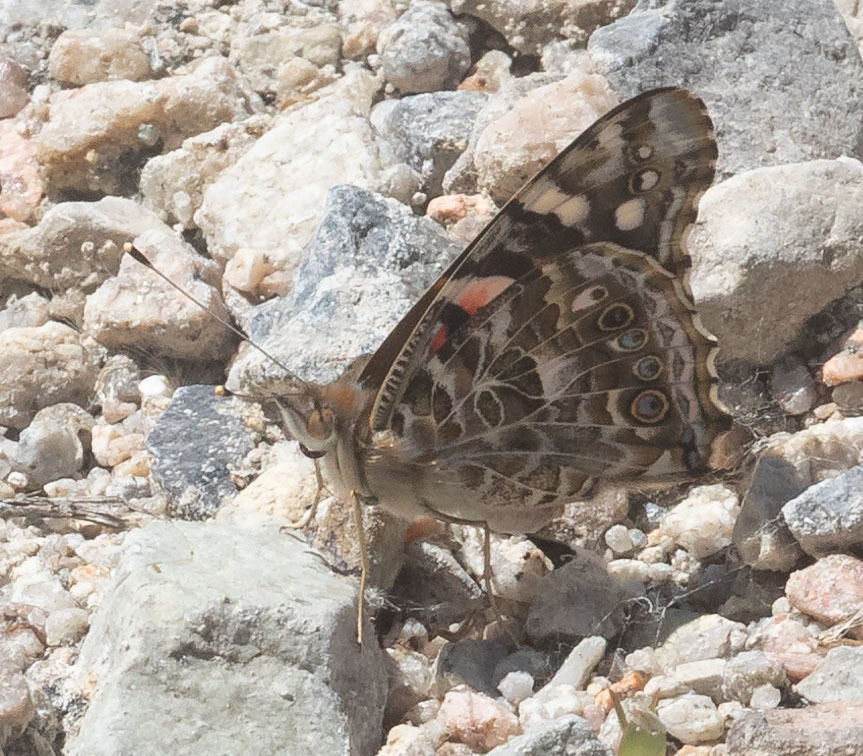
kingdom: Animalia
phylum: Arthropoda
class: Insecta
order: Lepidoptera
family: Nymphalidae
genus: Vanessa
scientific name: Vanessa cardui
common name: Painted lady
